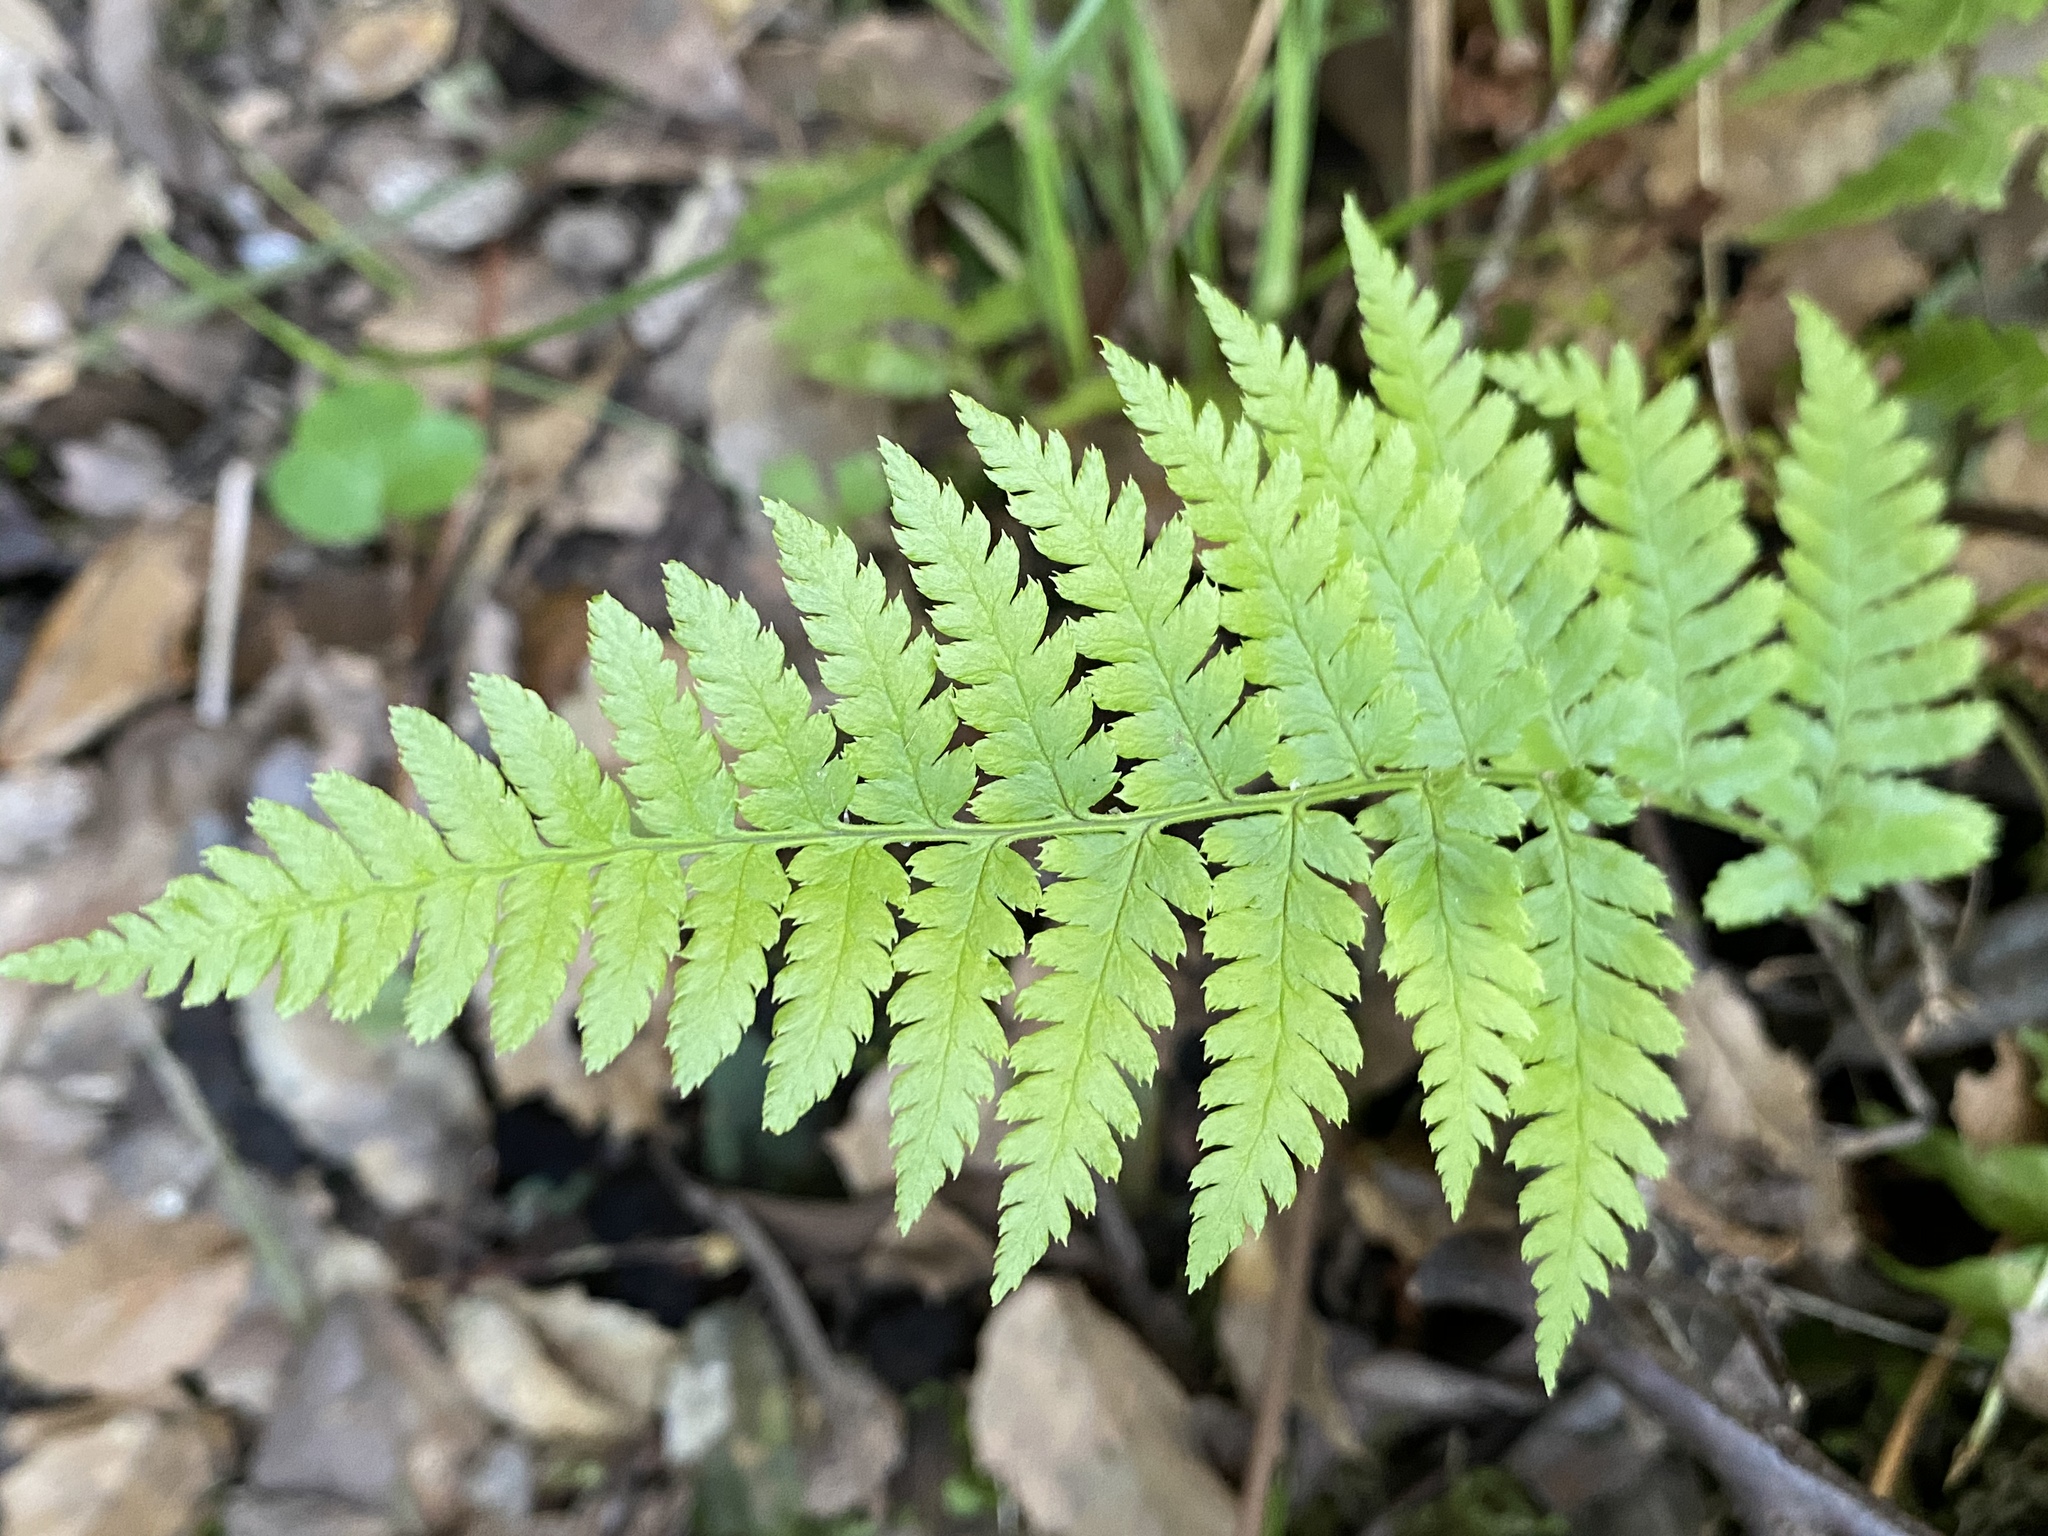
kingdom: Plantae
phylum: Tracheophyta
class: Polypodiopsida
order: Polypodiales
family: Dryopteridaceae
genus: Dryopteris
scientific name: Dryopteris arguta
